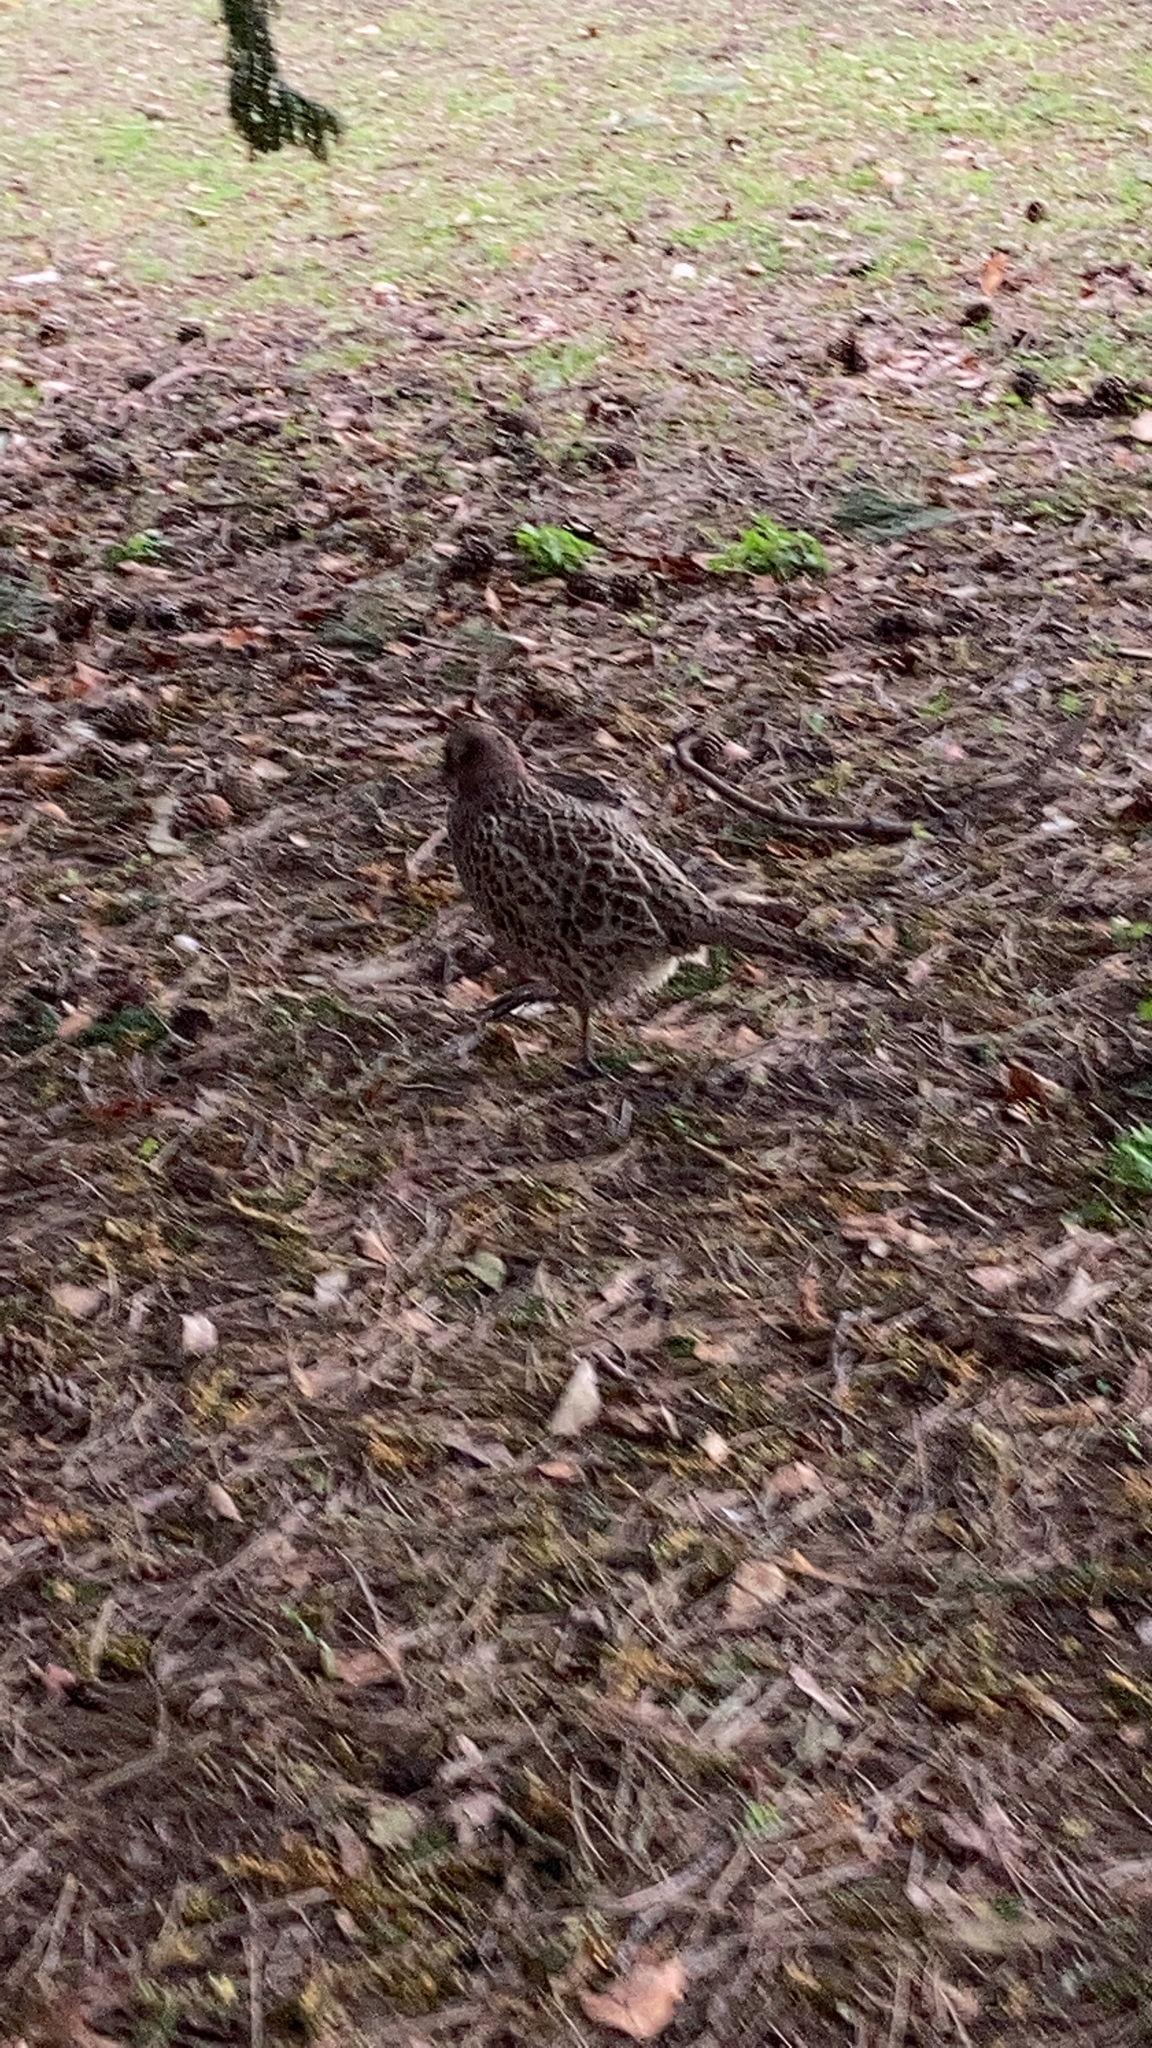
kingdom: Animalia
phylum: Chordata
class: Aves
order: Galliformes
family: Phasianidae
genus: Phasianus
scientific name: Phasianus colchicus
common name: Common pheasant
